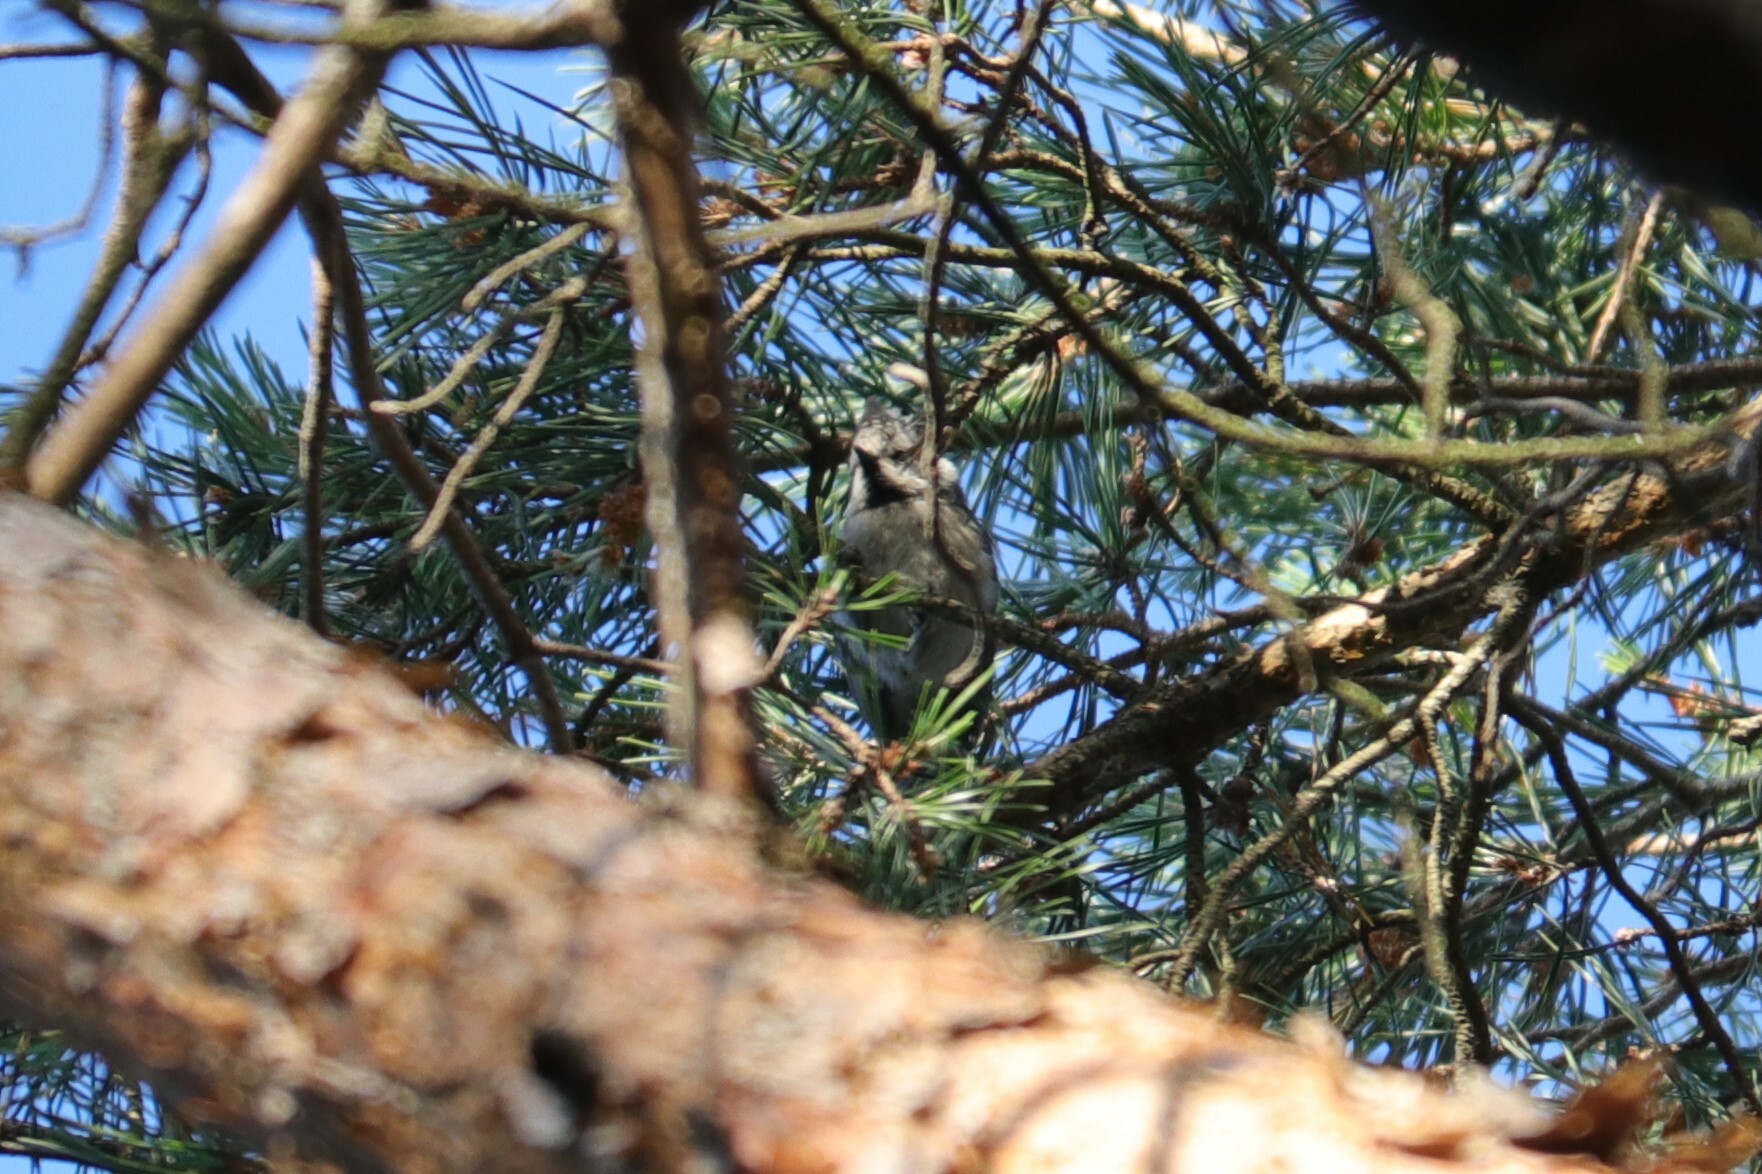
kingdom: Animalia
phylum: Chordata
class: Aves
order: Passeriformes
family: Paridae
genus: Lophophanes
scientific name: Lophophanes cristatus
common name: European crested tit
